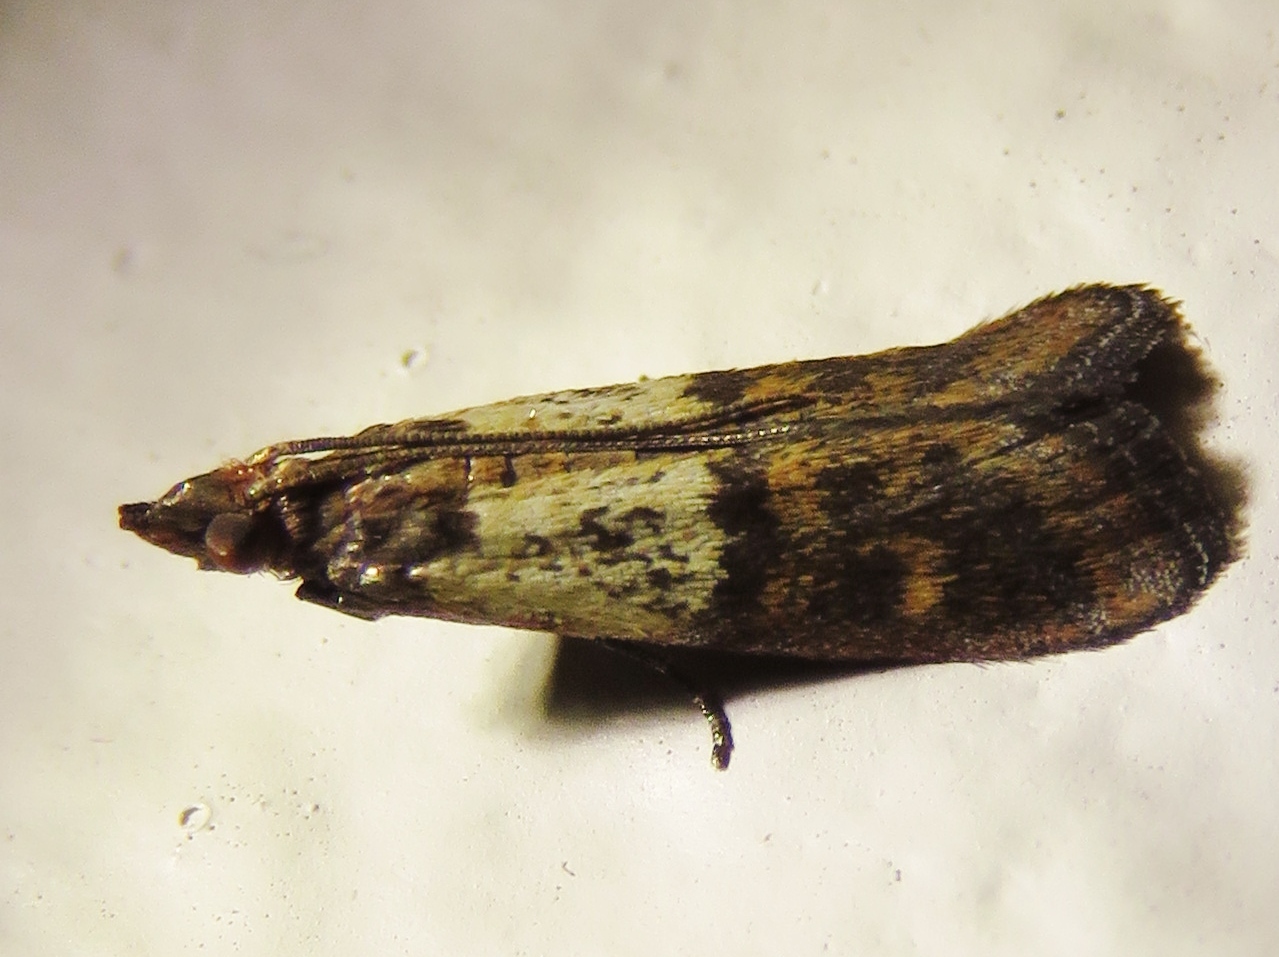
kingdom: Animalia
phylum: Arthropoda
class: Insecta
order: Lepidoptera
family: Pyralidae
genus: Plodia
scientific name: Plodia interpunctella
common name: Indian meal moth
